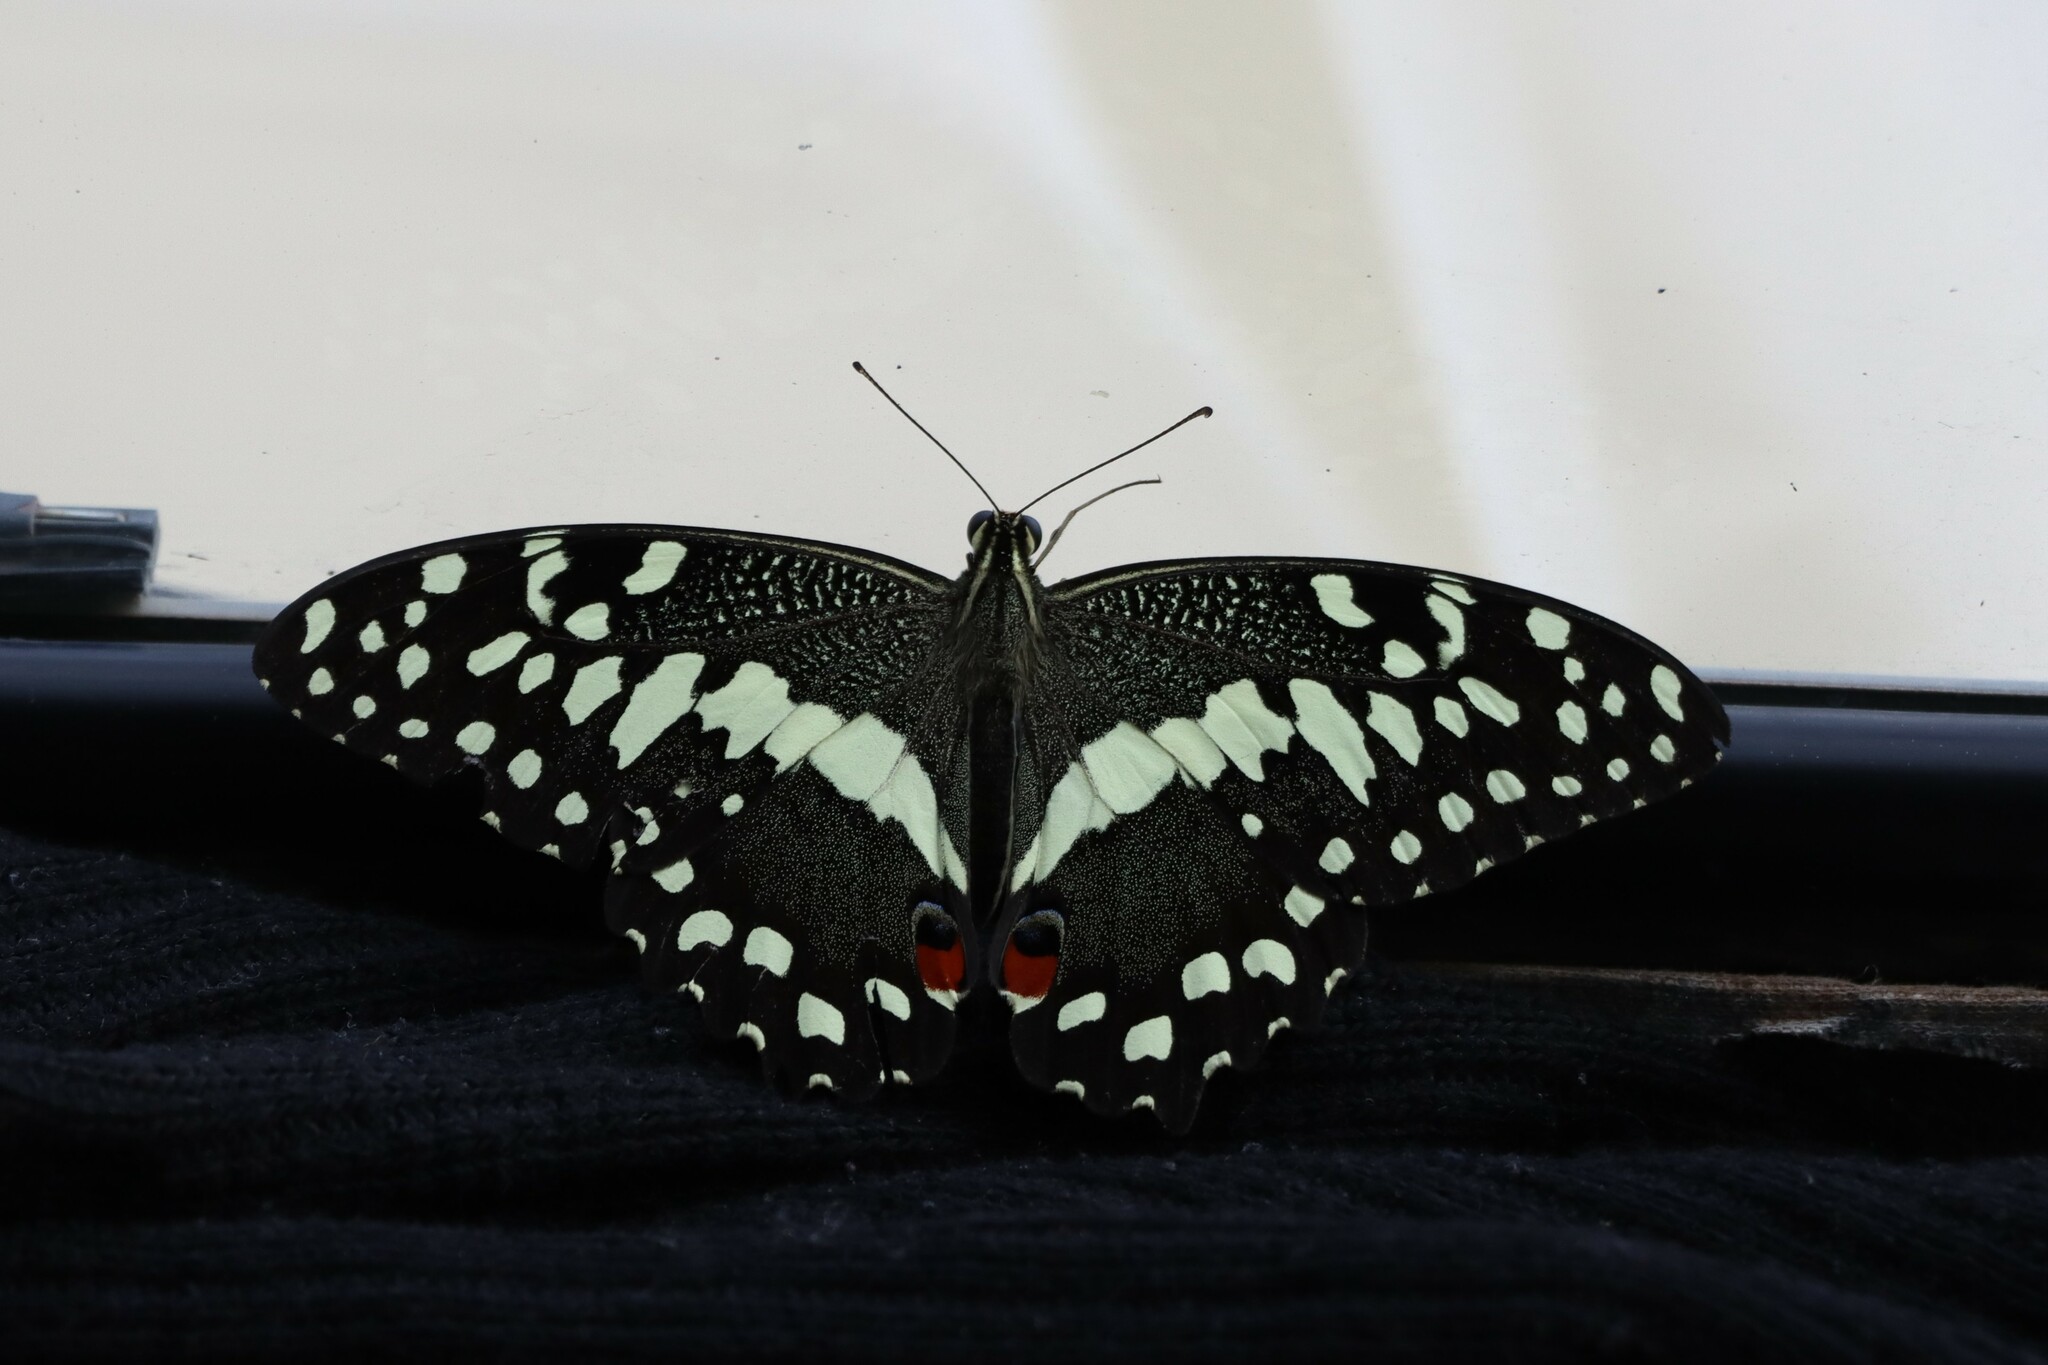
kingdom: Animalia
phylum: Arthropoda
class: Insecta
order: Lepidoptera
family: Papilionidae
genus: Papilio
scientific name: Papilio demodocus
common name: Christmas butterfly
